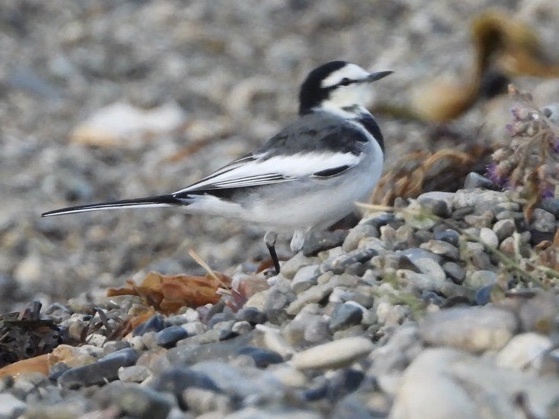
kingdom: Animalia
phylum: Chordata
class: Aves
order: Passeriformes
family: Motacillidae
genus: Motacilla
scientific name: Motacilla alba
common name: White wagtail
